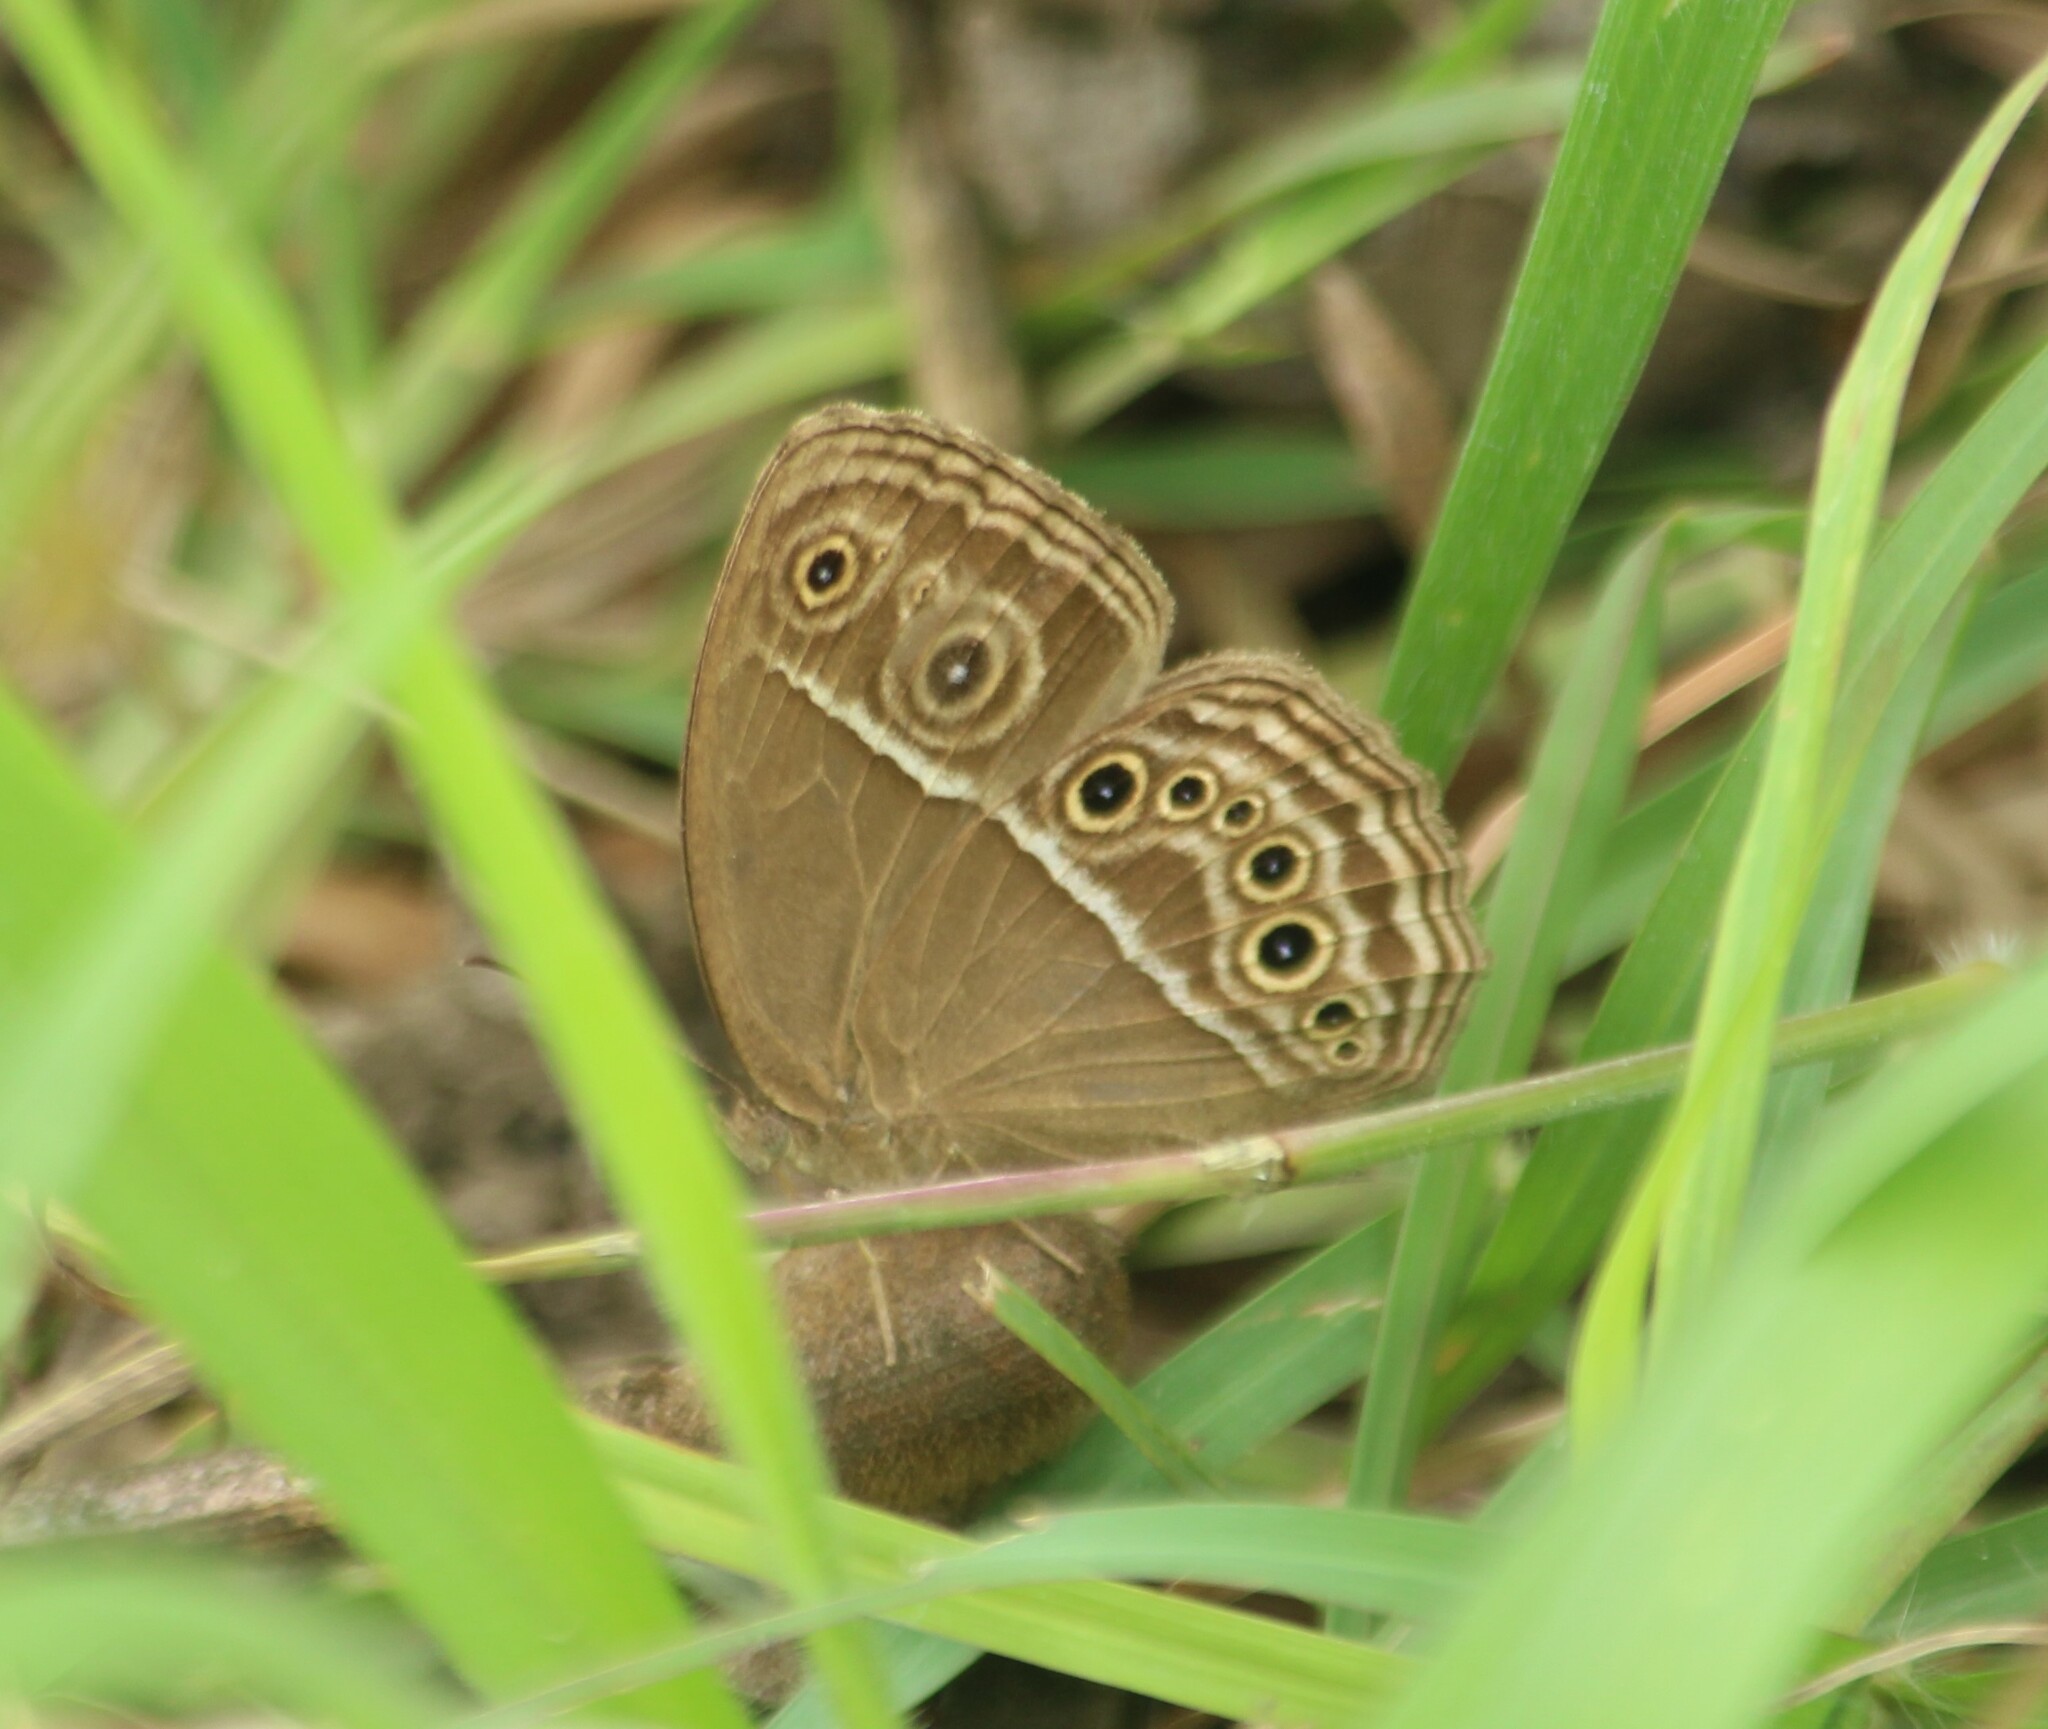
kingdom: Animalia
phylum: Arthropoda
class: Insecta
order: Lepidoptera
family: Nymphalidae
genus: Mycalesis
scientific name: Mycalesis perseus
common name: Dingy bushbrown
